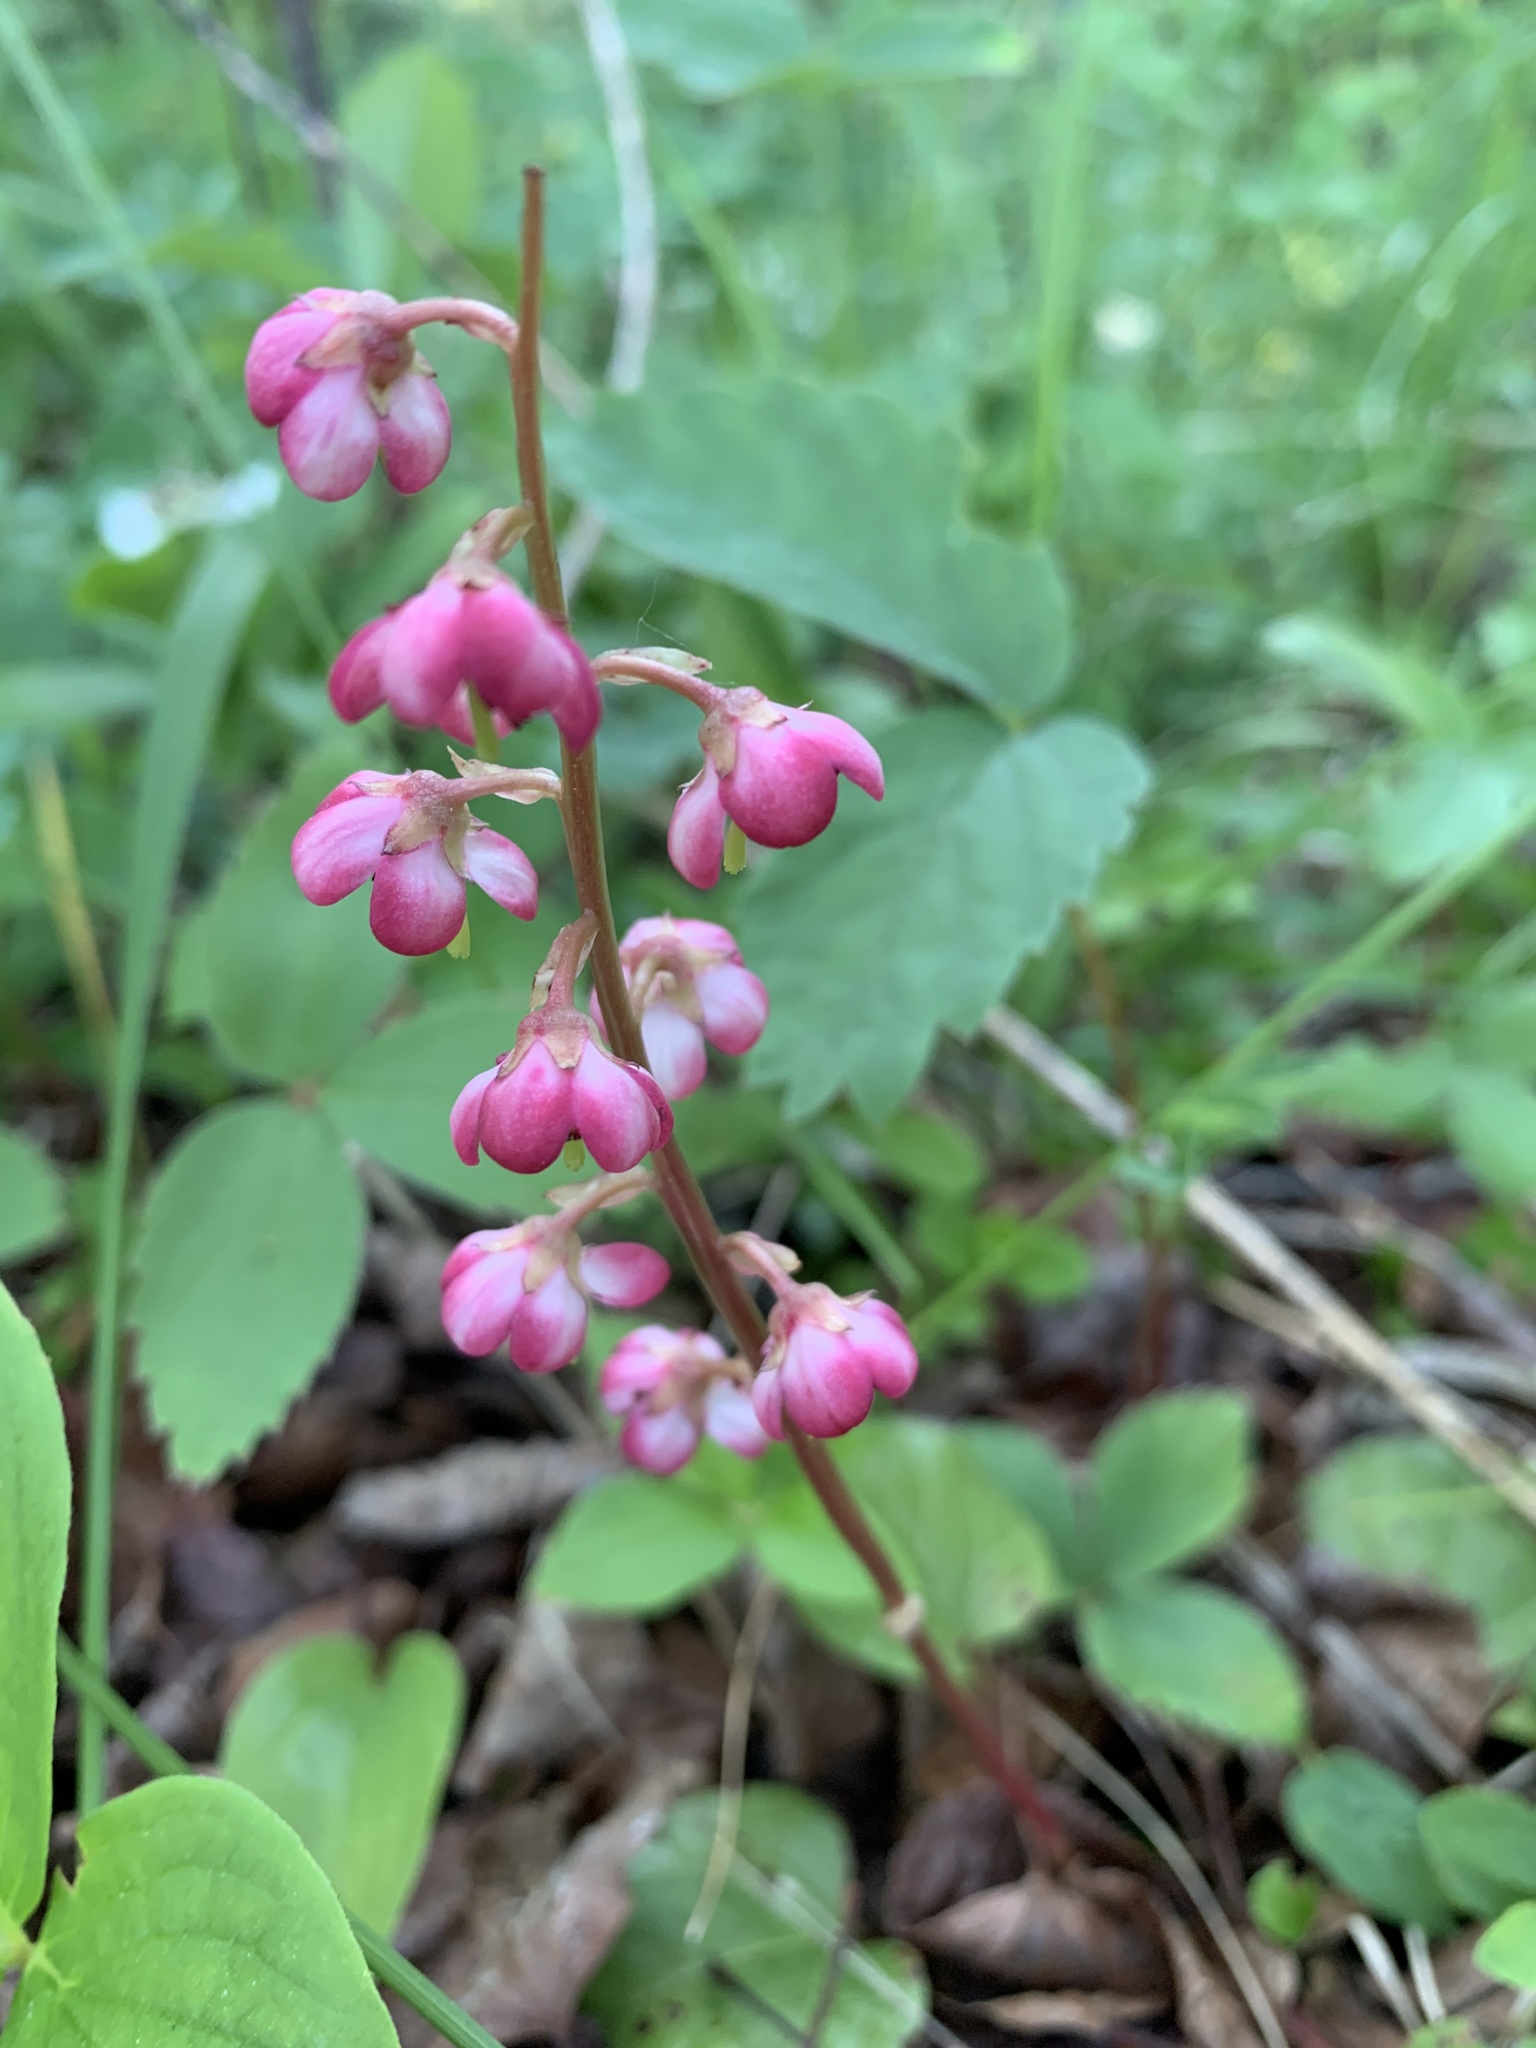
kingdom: Plantae
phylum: Tracheophyta
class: Magnoliopsida
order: Ericales
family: Ericaceae
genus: Pyrola
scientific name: Pyrola asarifolia
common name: Bog wintergreen
